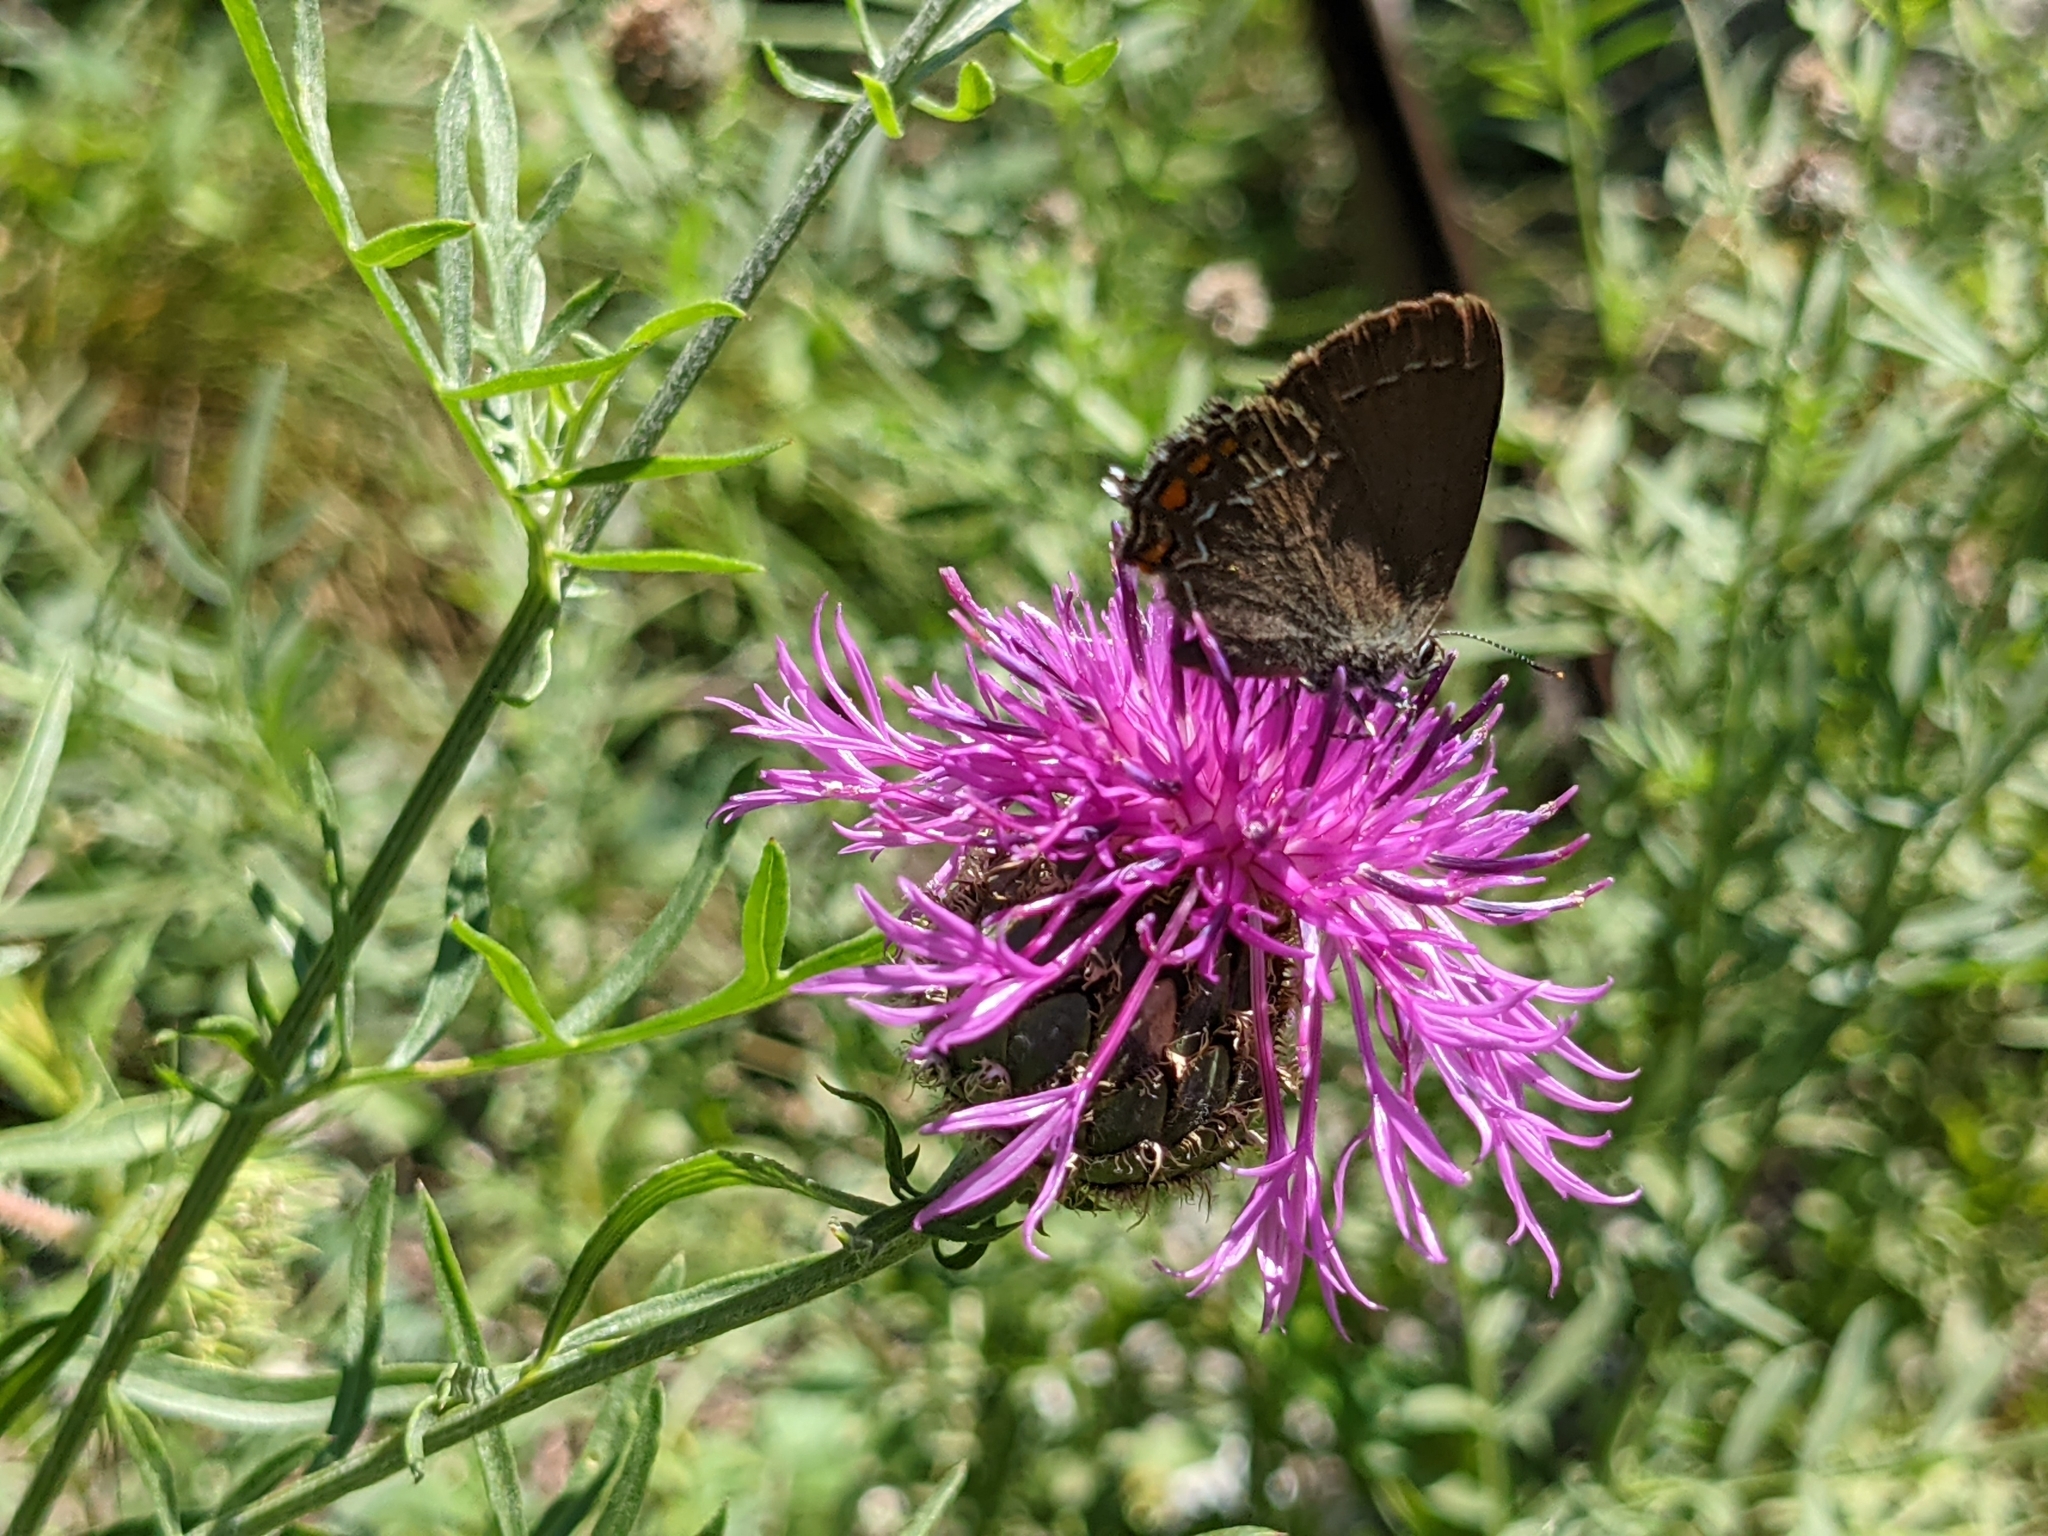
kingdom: Animalia
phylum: Arthropoda
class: Insecta
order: Lepidoptera
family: Lycaenidae
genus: Nordmannia
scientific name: Nordmannia ilicis
